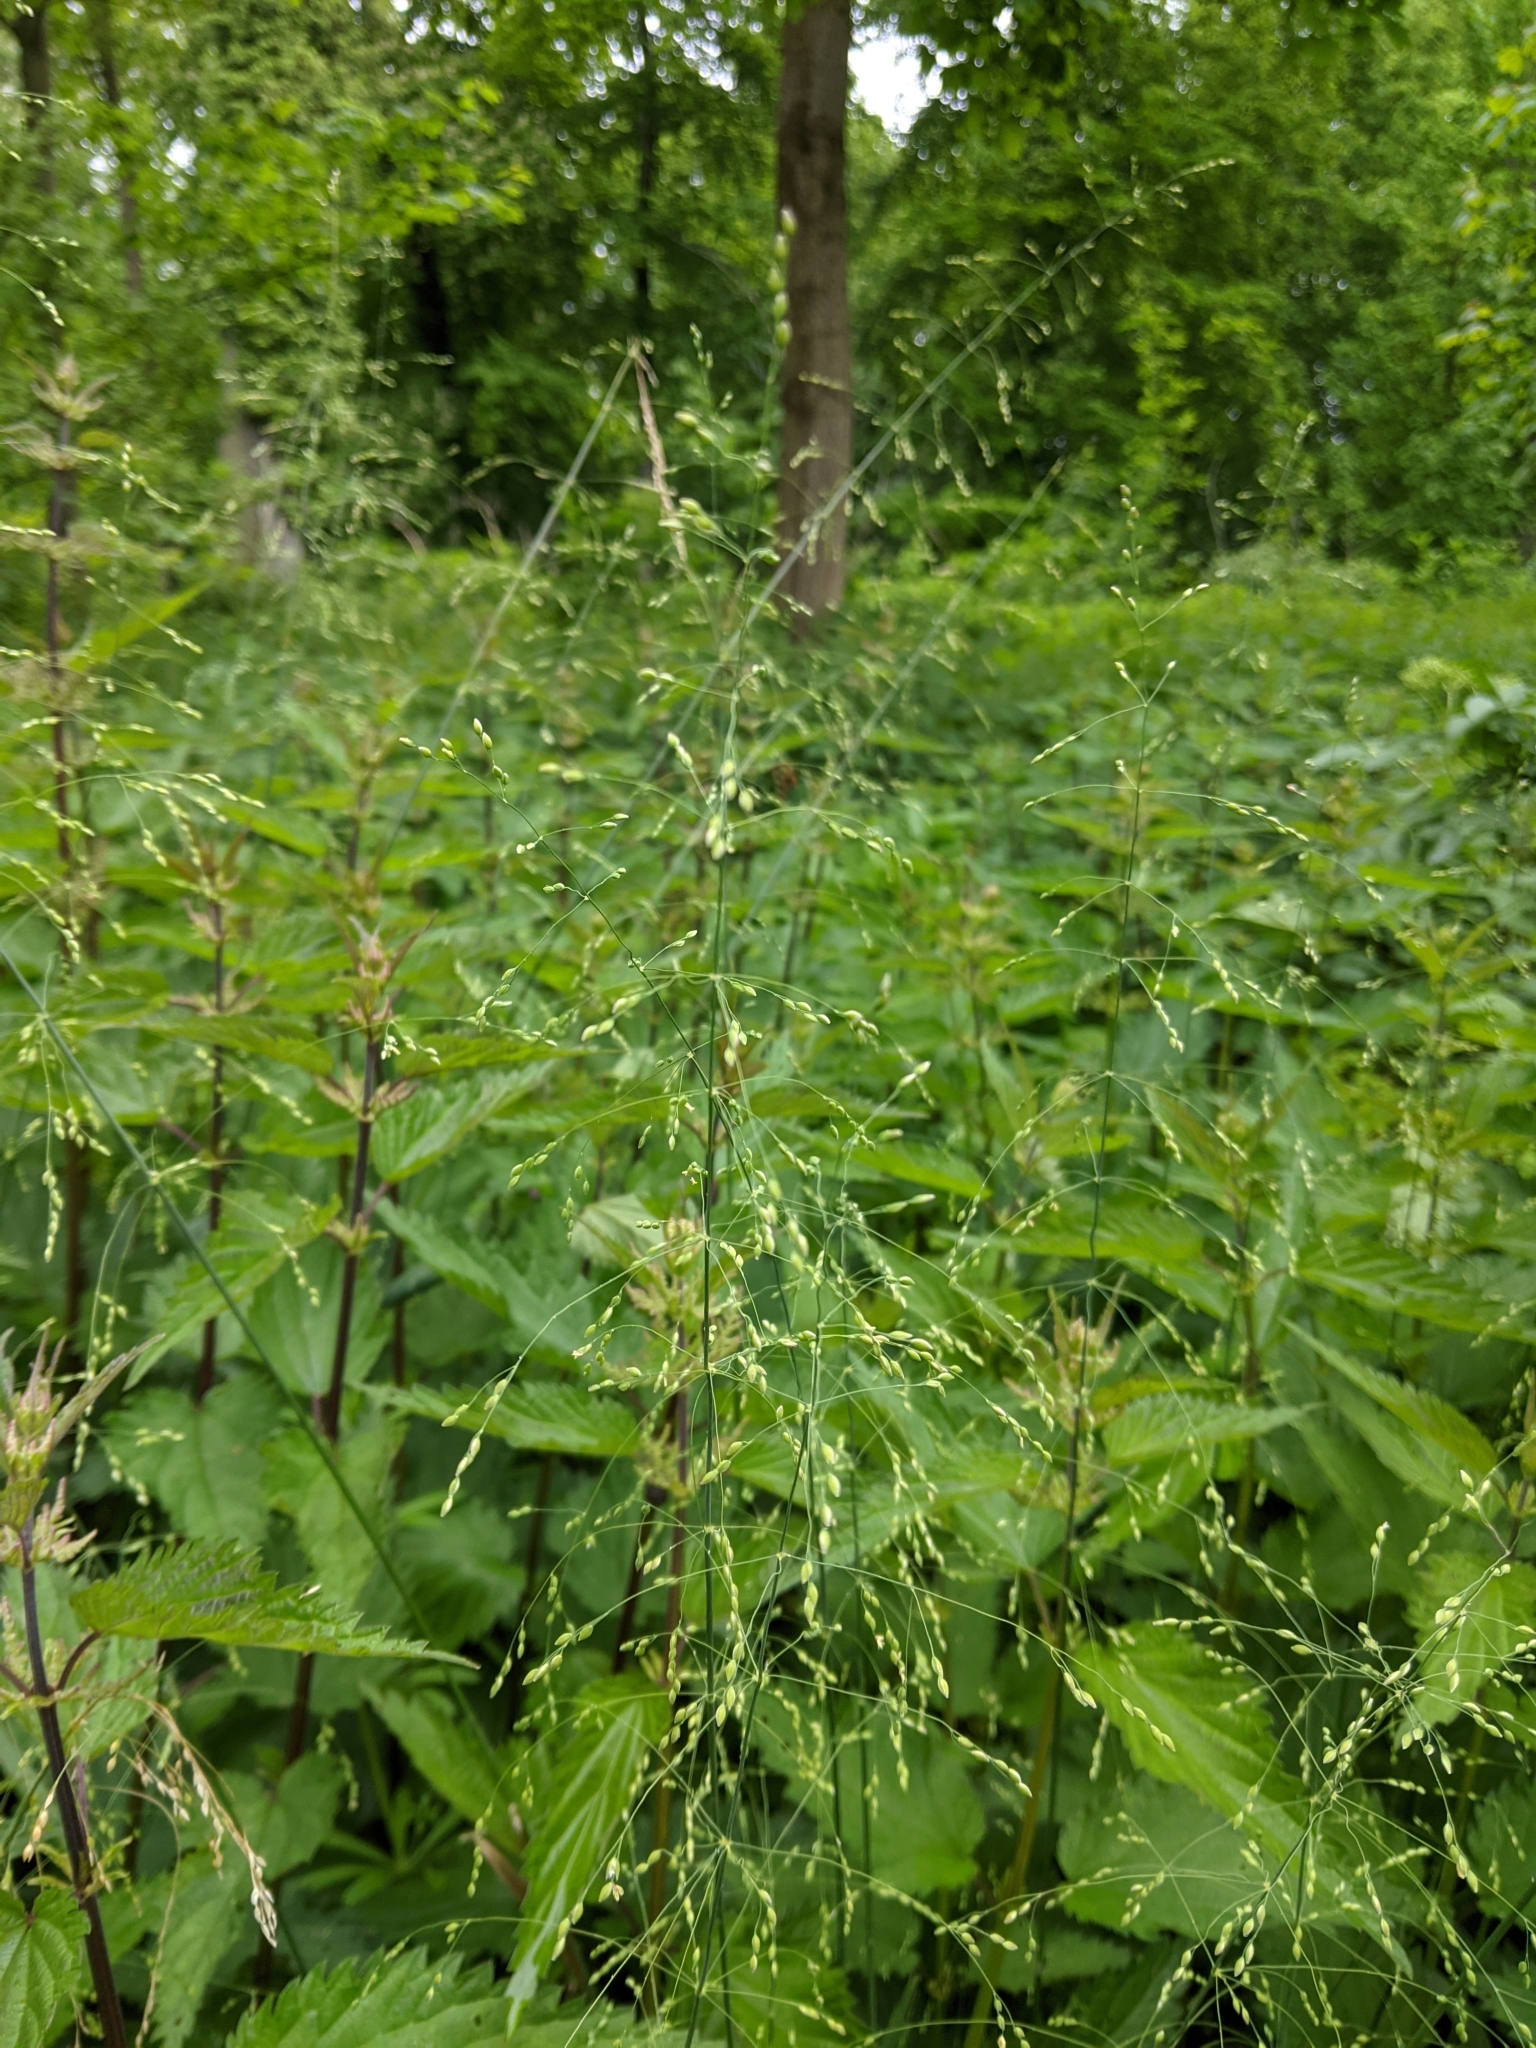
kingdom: Plantae
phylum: Tracheophyta
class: Liliopsida
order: Poales
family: Poaceae
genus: Milium
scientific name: Milium effusum
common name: Wood millet
